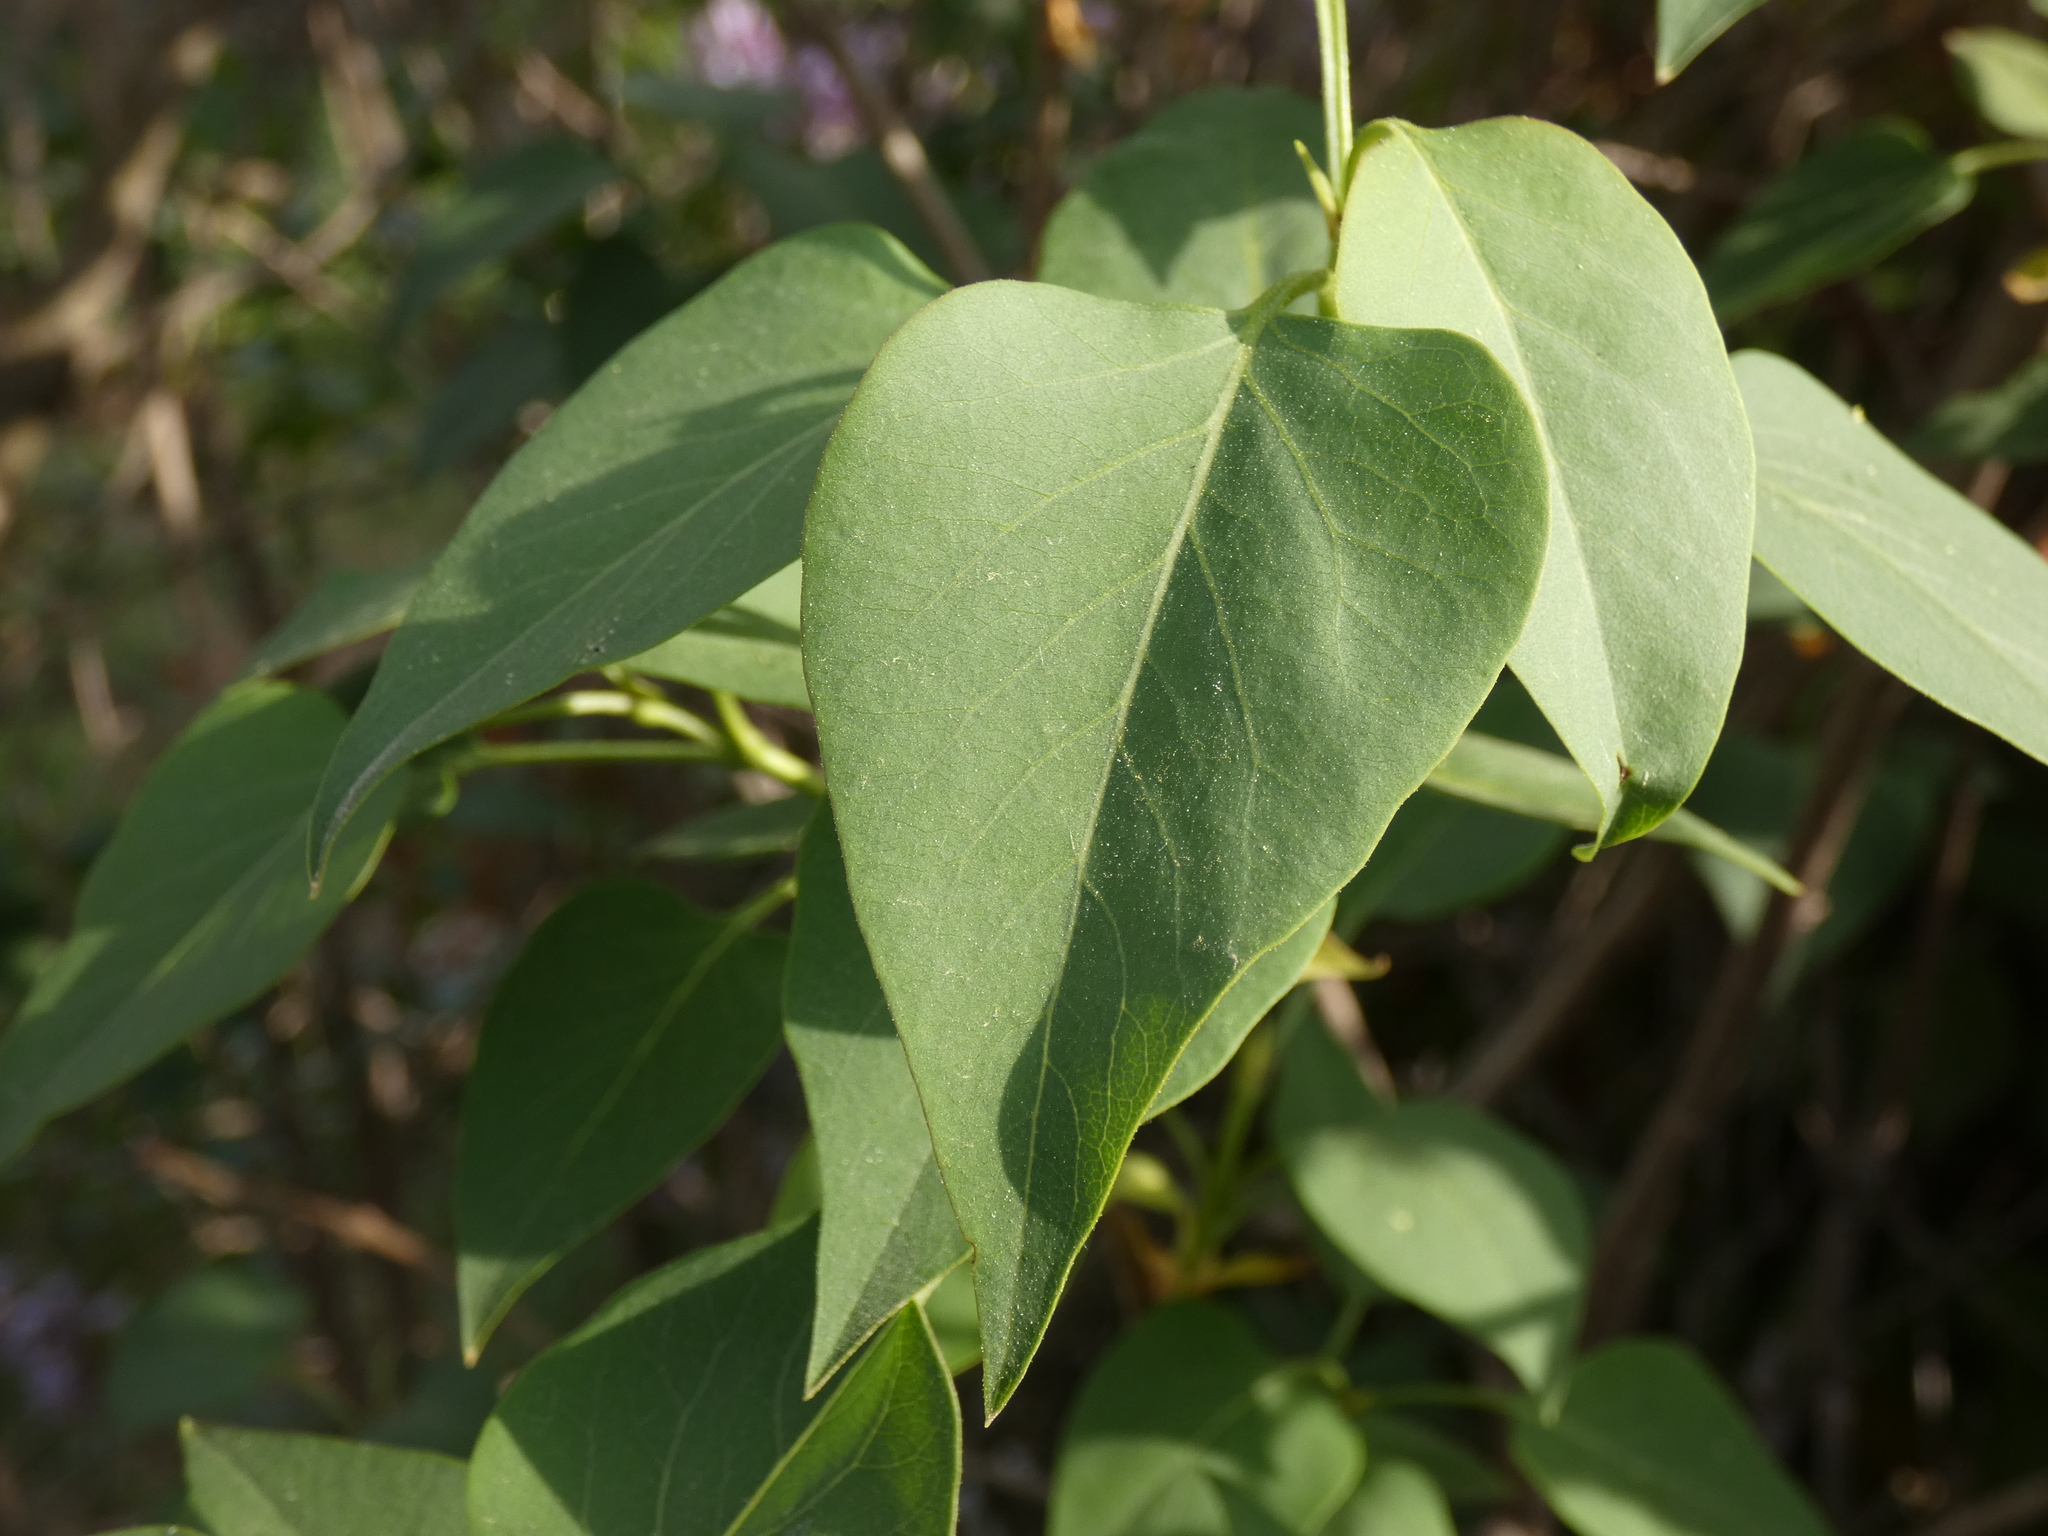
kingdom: Plantae
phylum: Tracheophyta
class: Magnoliopsida
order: Lamiales
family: Oleaceae
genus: Syringa
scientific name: Syringa vulgaris
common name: Common lilac
